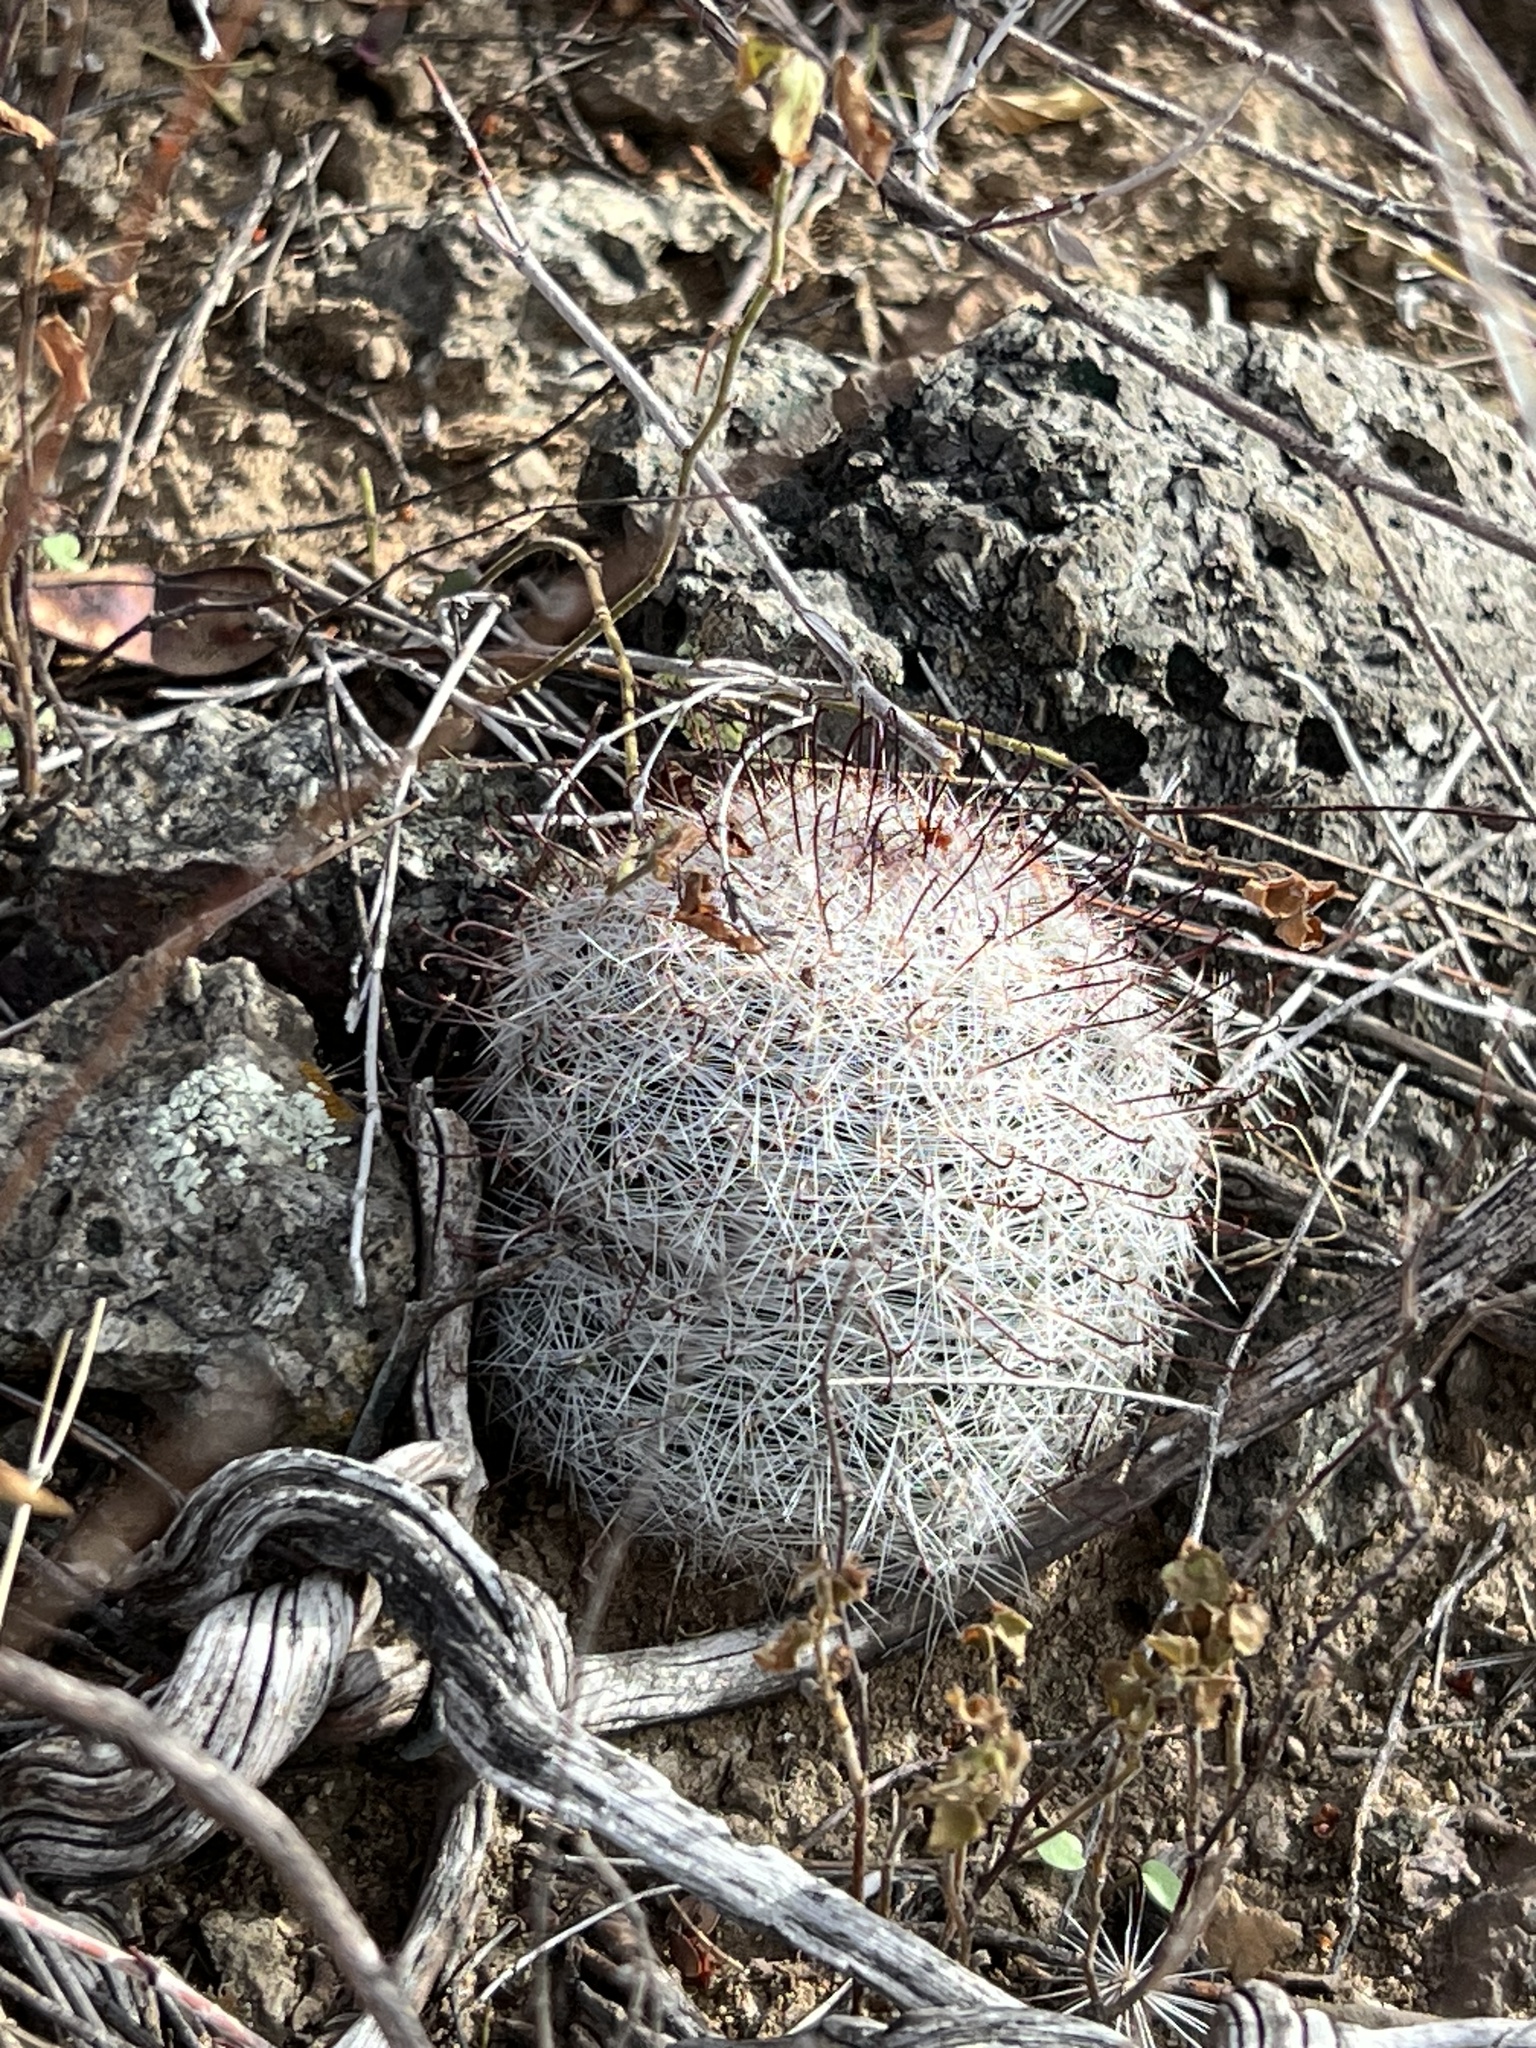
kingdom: Plantae
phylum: Tracheophyta
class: Magnoliopsida
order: Caryophyllales
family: Cactaceae
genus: Cochemiea
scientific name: Cochemiea grahamii
